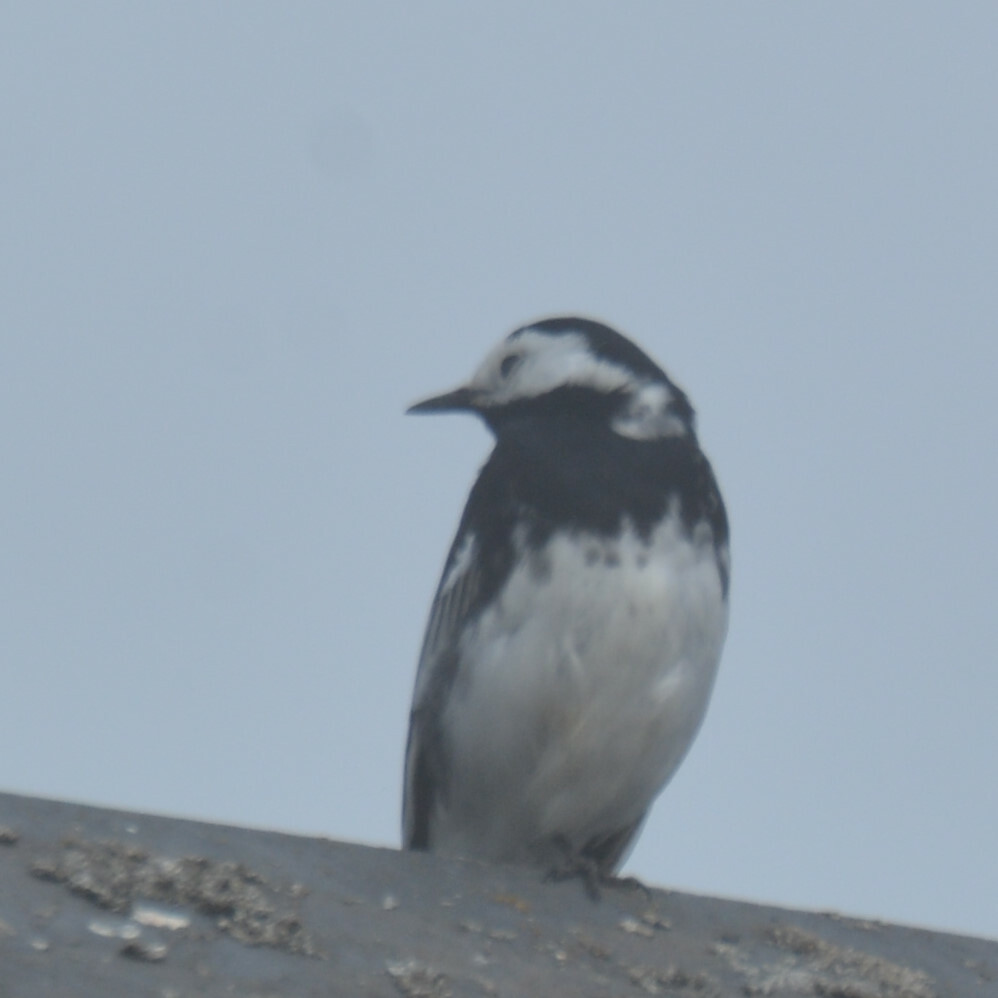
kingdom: Animalia
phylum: Chordata
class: Aves
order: Passeriformes
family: Motacillidae
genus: Motacilla
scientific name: Motacilla alba
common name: White wagtail
